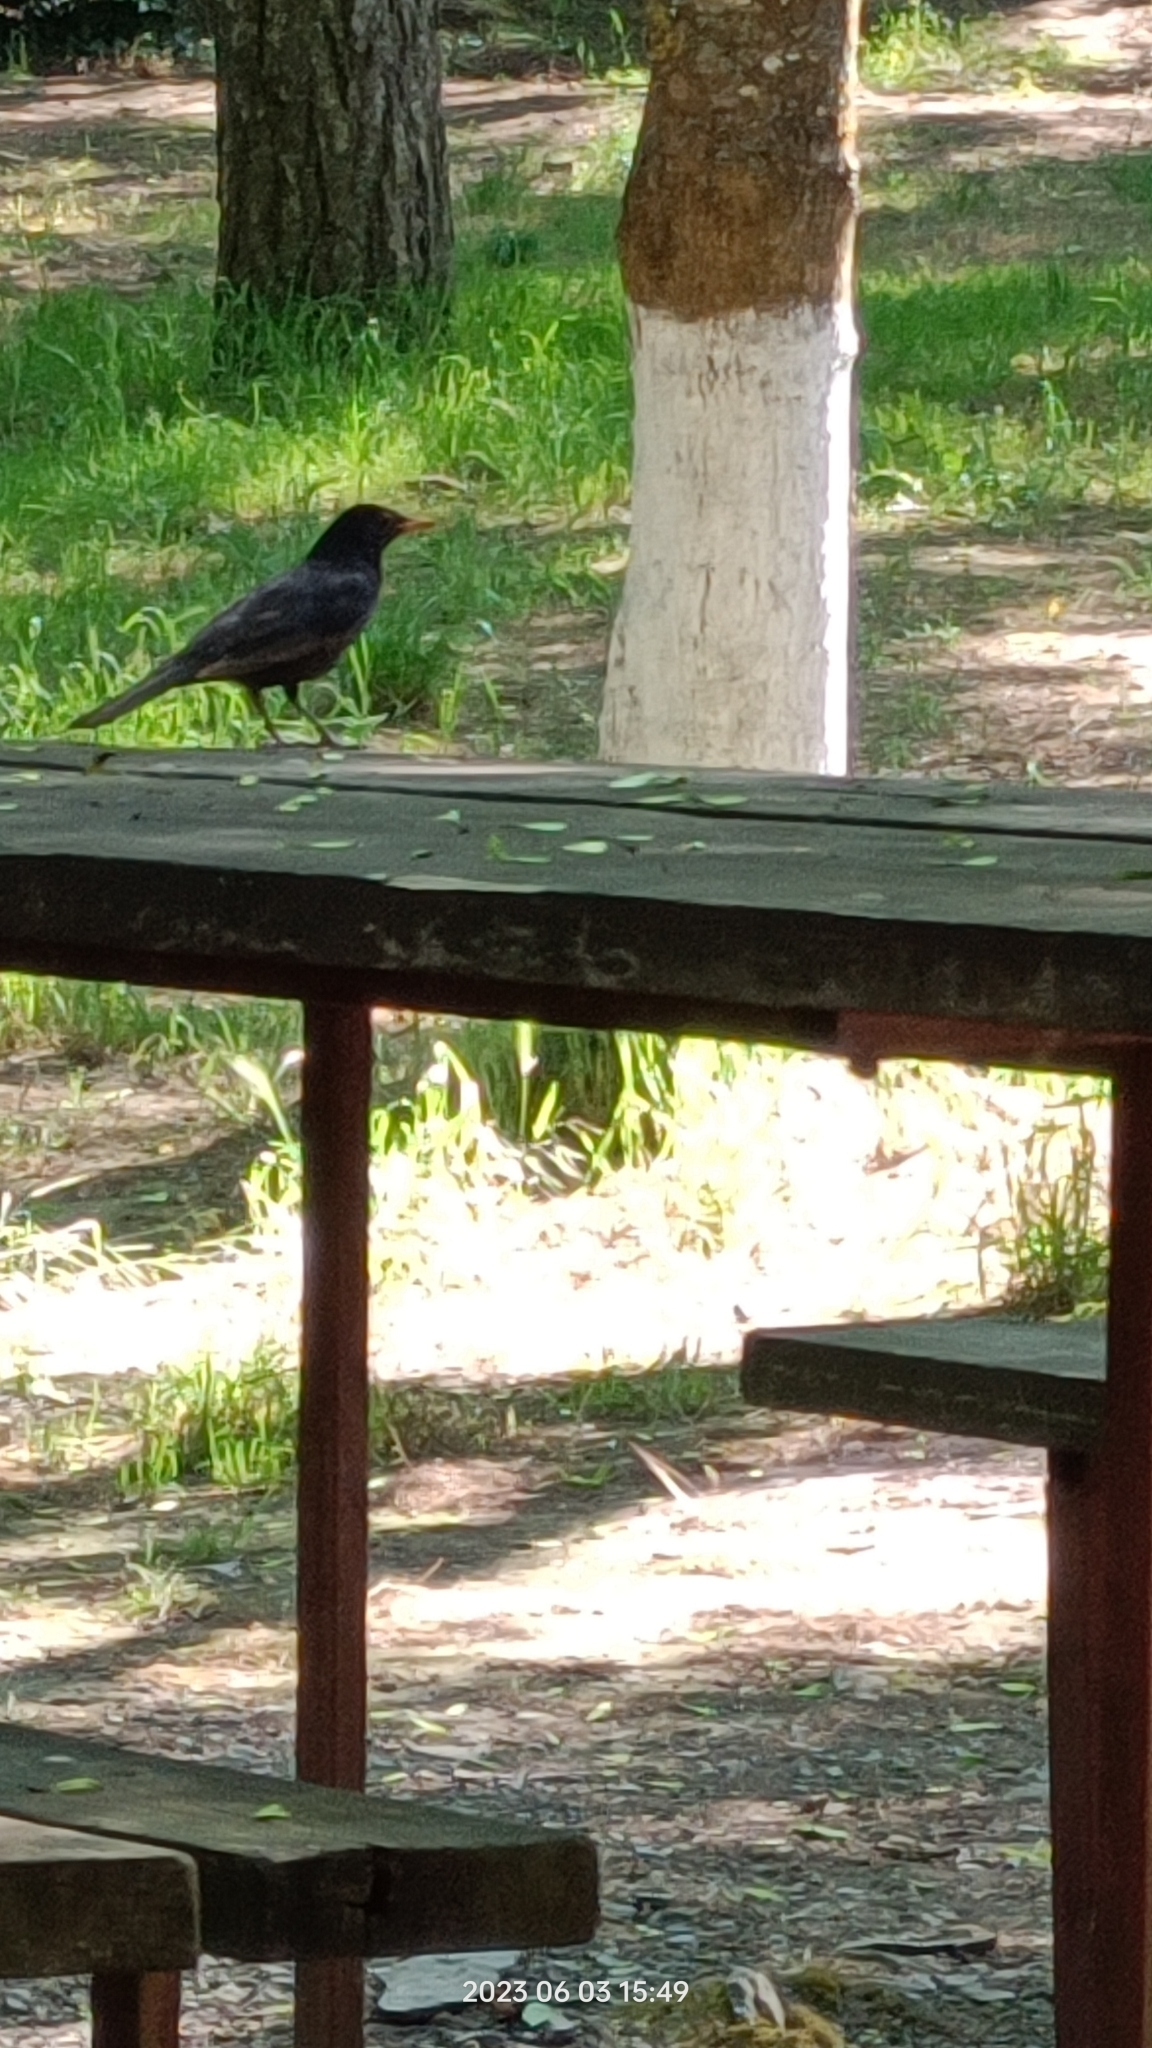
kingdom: Animalia
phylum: Chordata
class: Aves
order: Passeriformes
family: Turdidae
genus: Turdus
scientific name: Turdus merula
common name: Common blackbird
